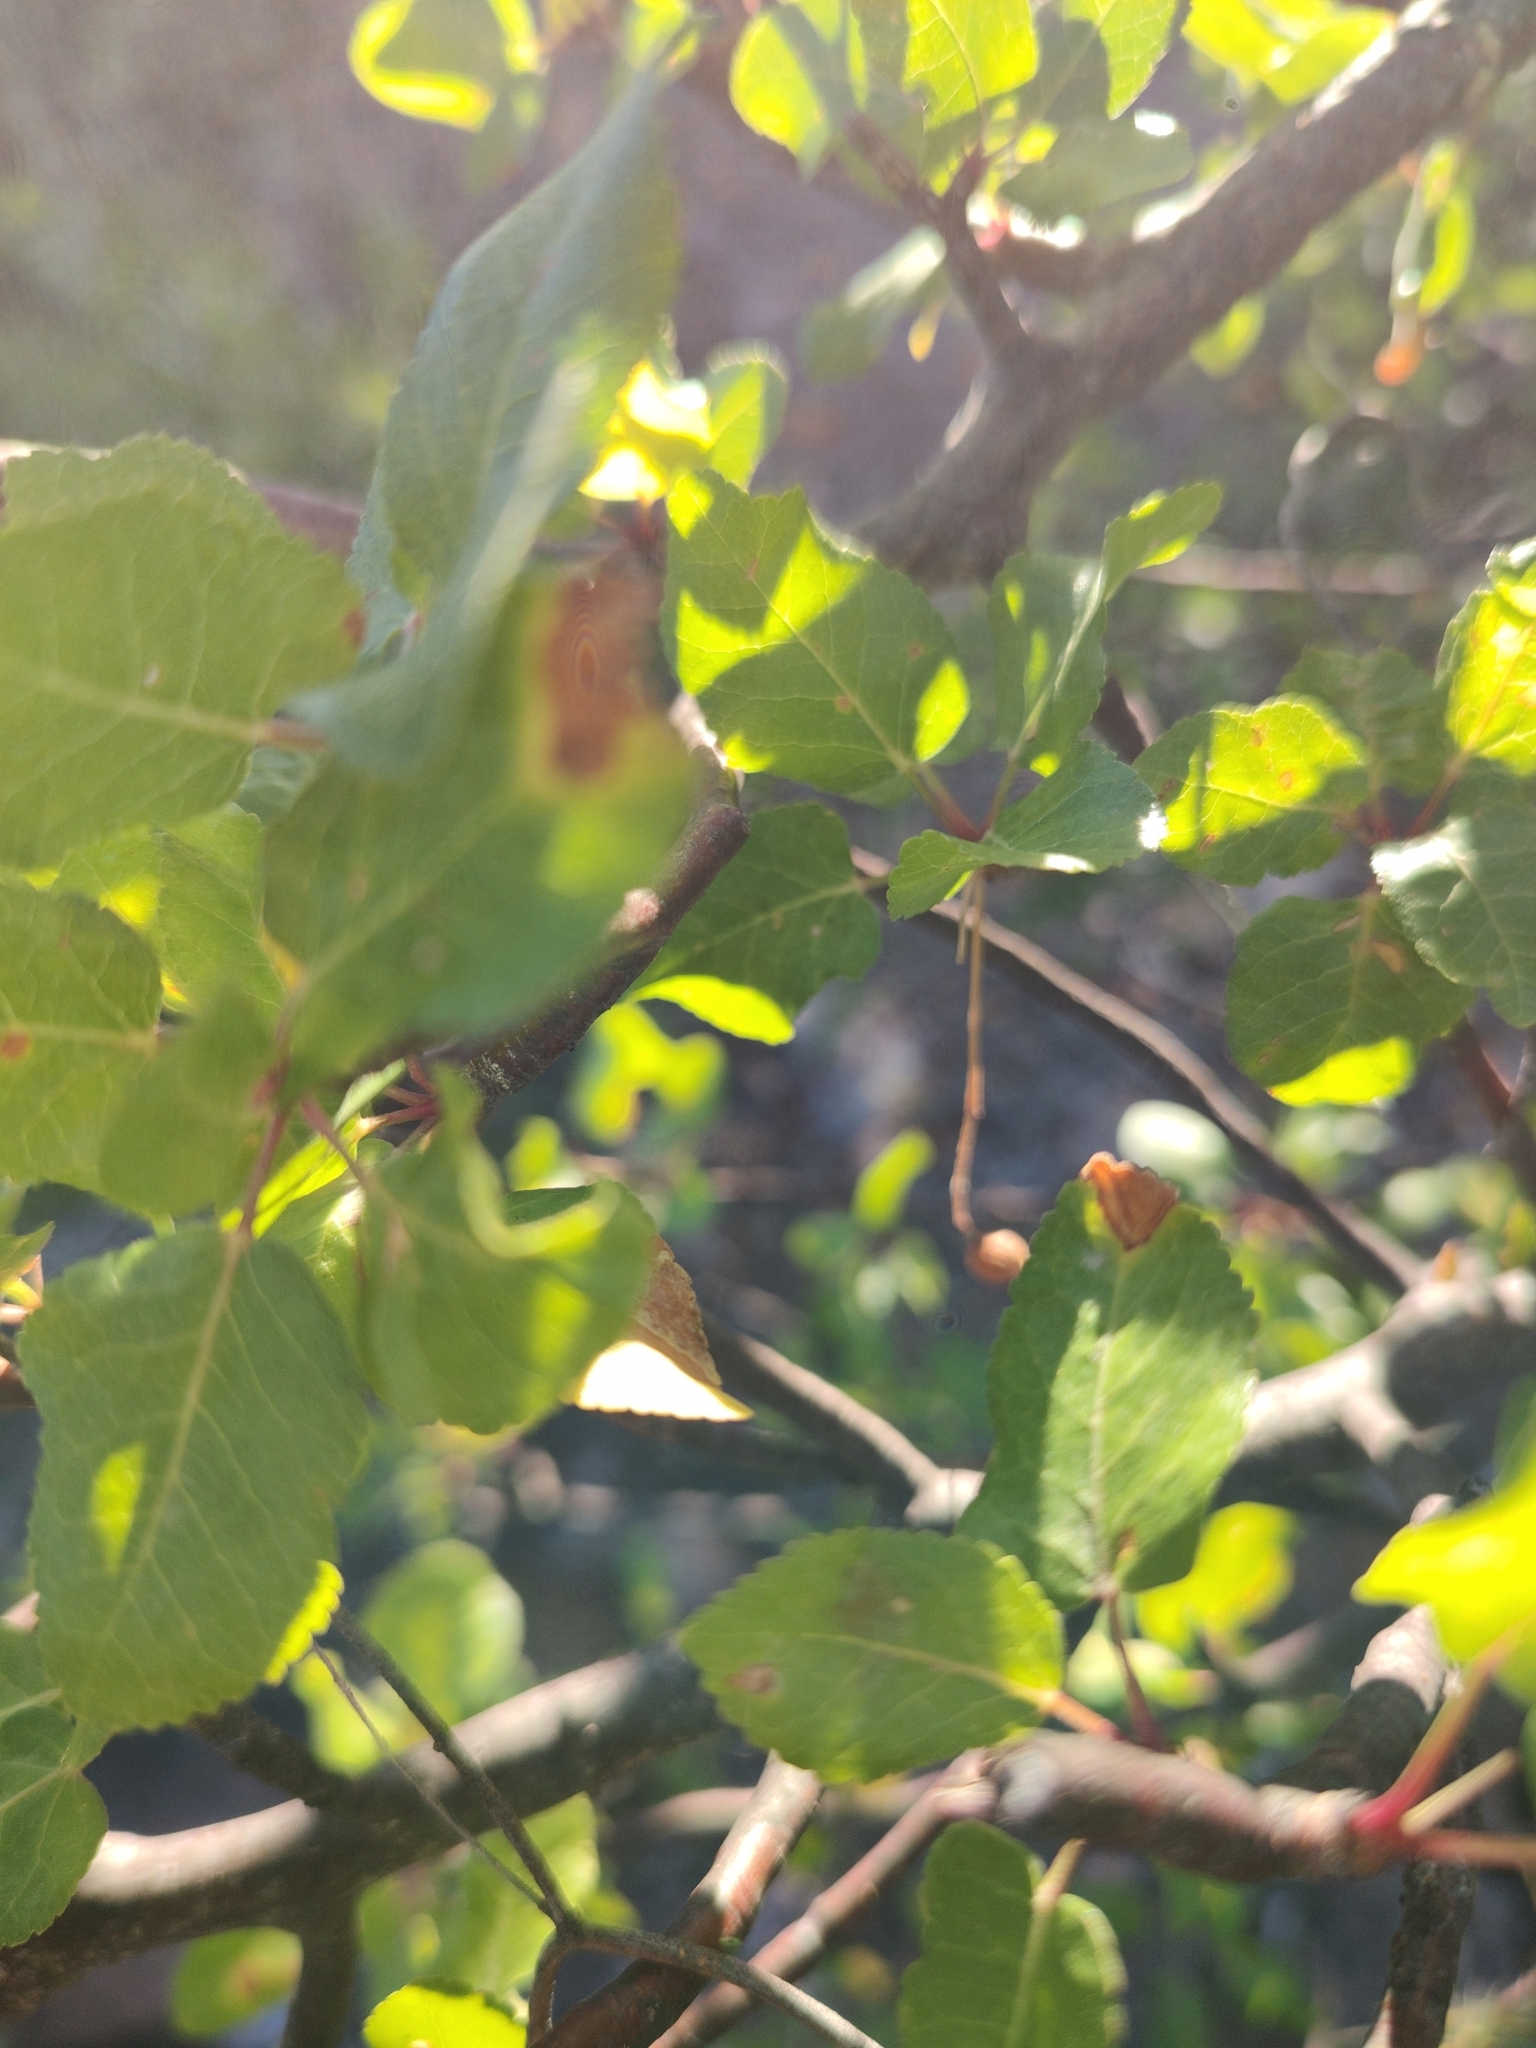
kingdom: Plantae
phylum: Tracheophyta
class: Magnoliopsida
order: Sapindales
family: Burseraceae
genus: Bursera
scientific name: Bursera epinnata
